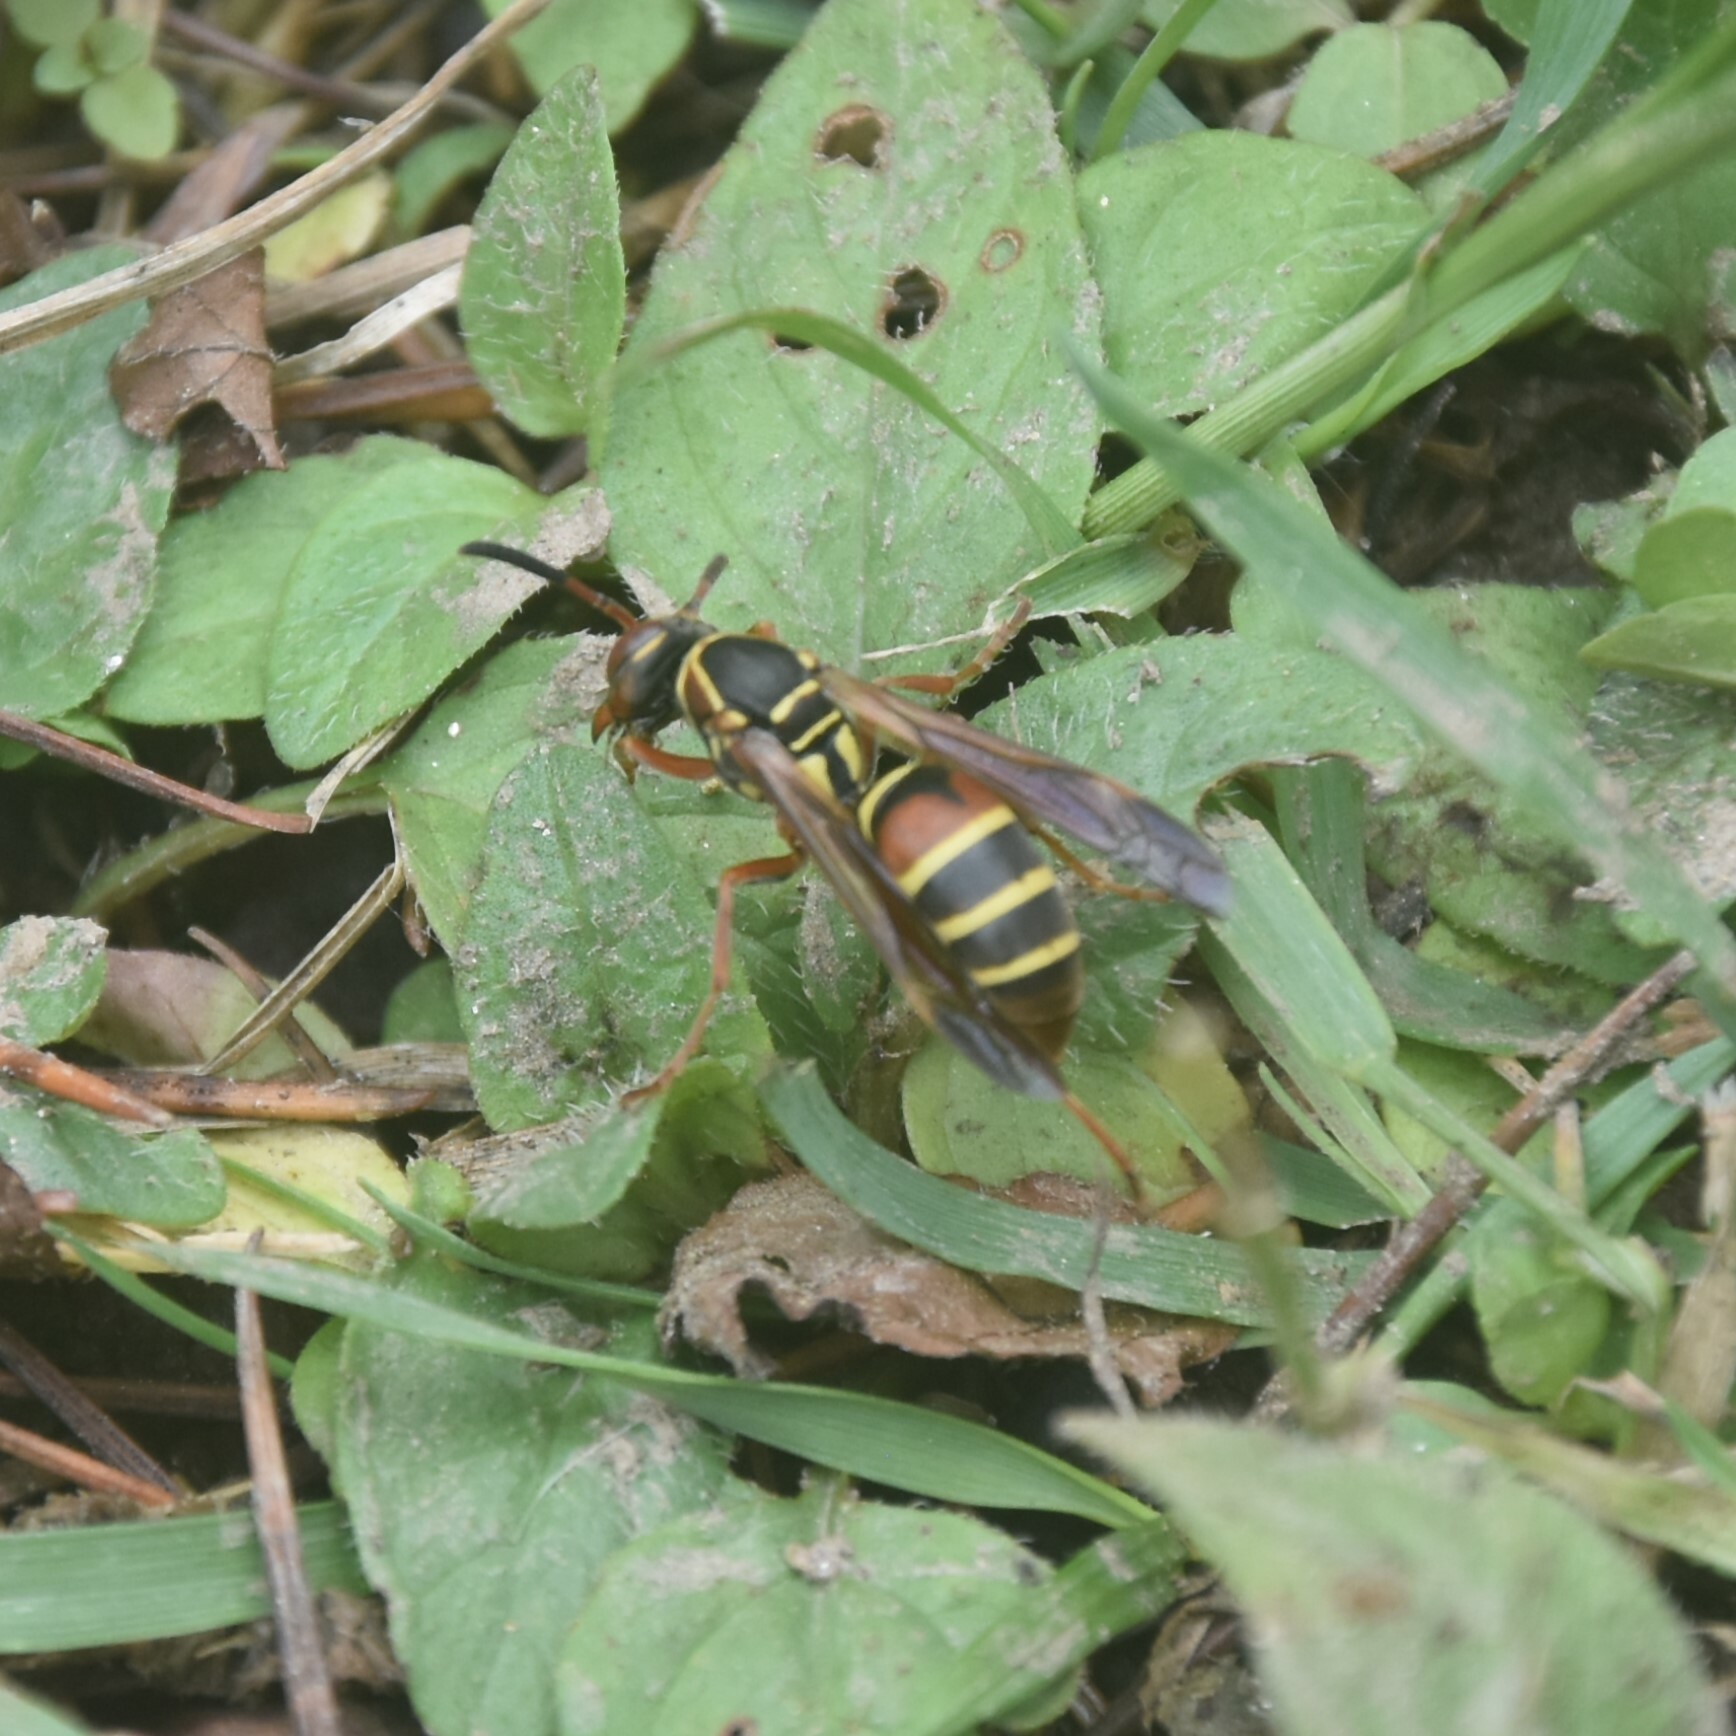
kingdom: Animalia
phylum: Arthropoda
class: Insecta
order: Hymenoptera
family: Eumenidae
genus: Knemodynerus
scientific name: Knemodynerus multimaculatus
